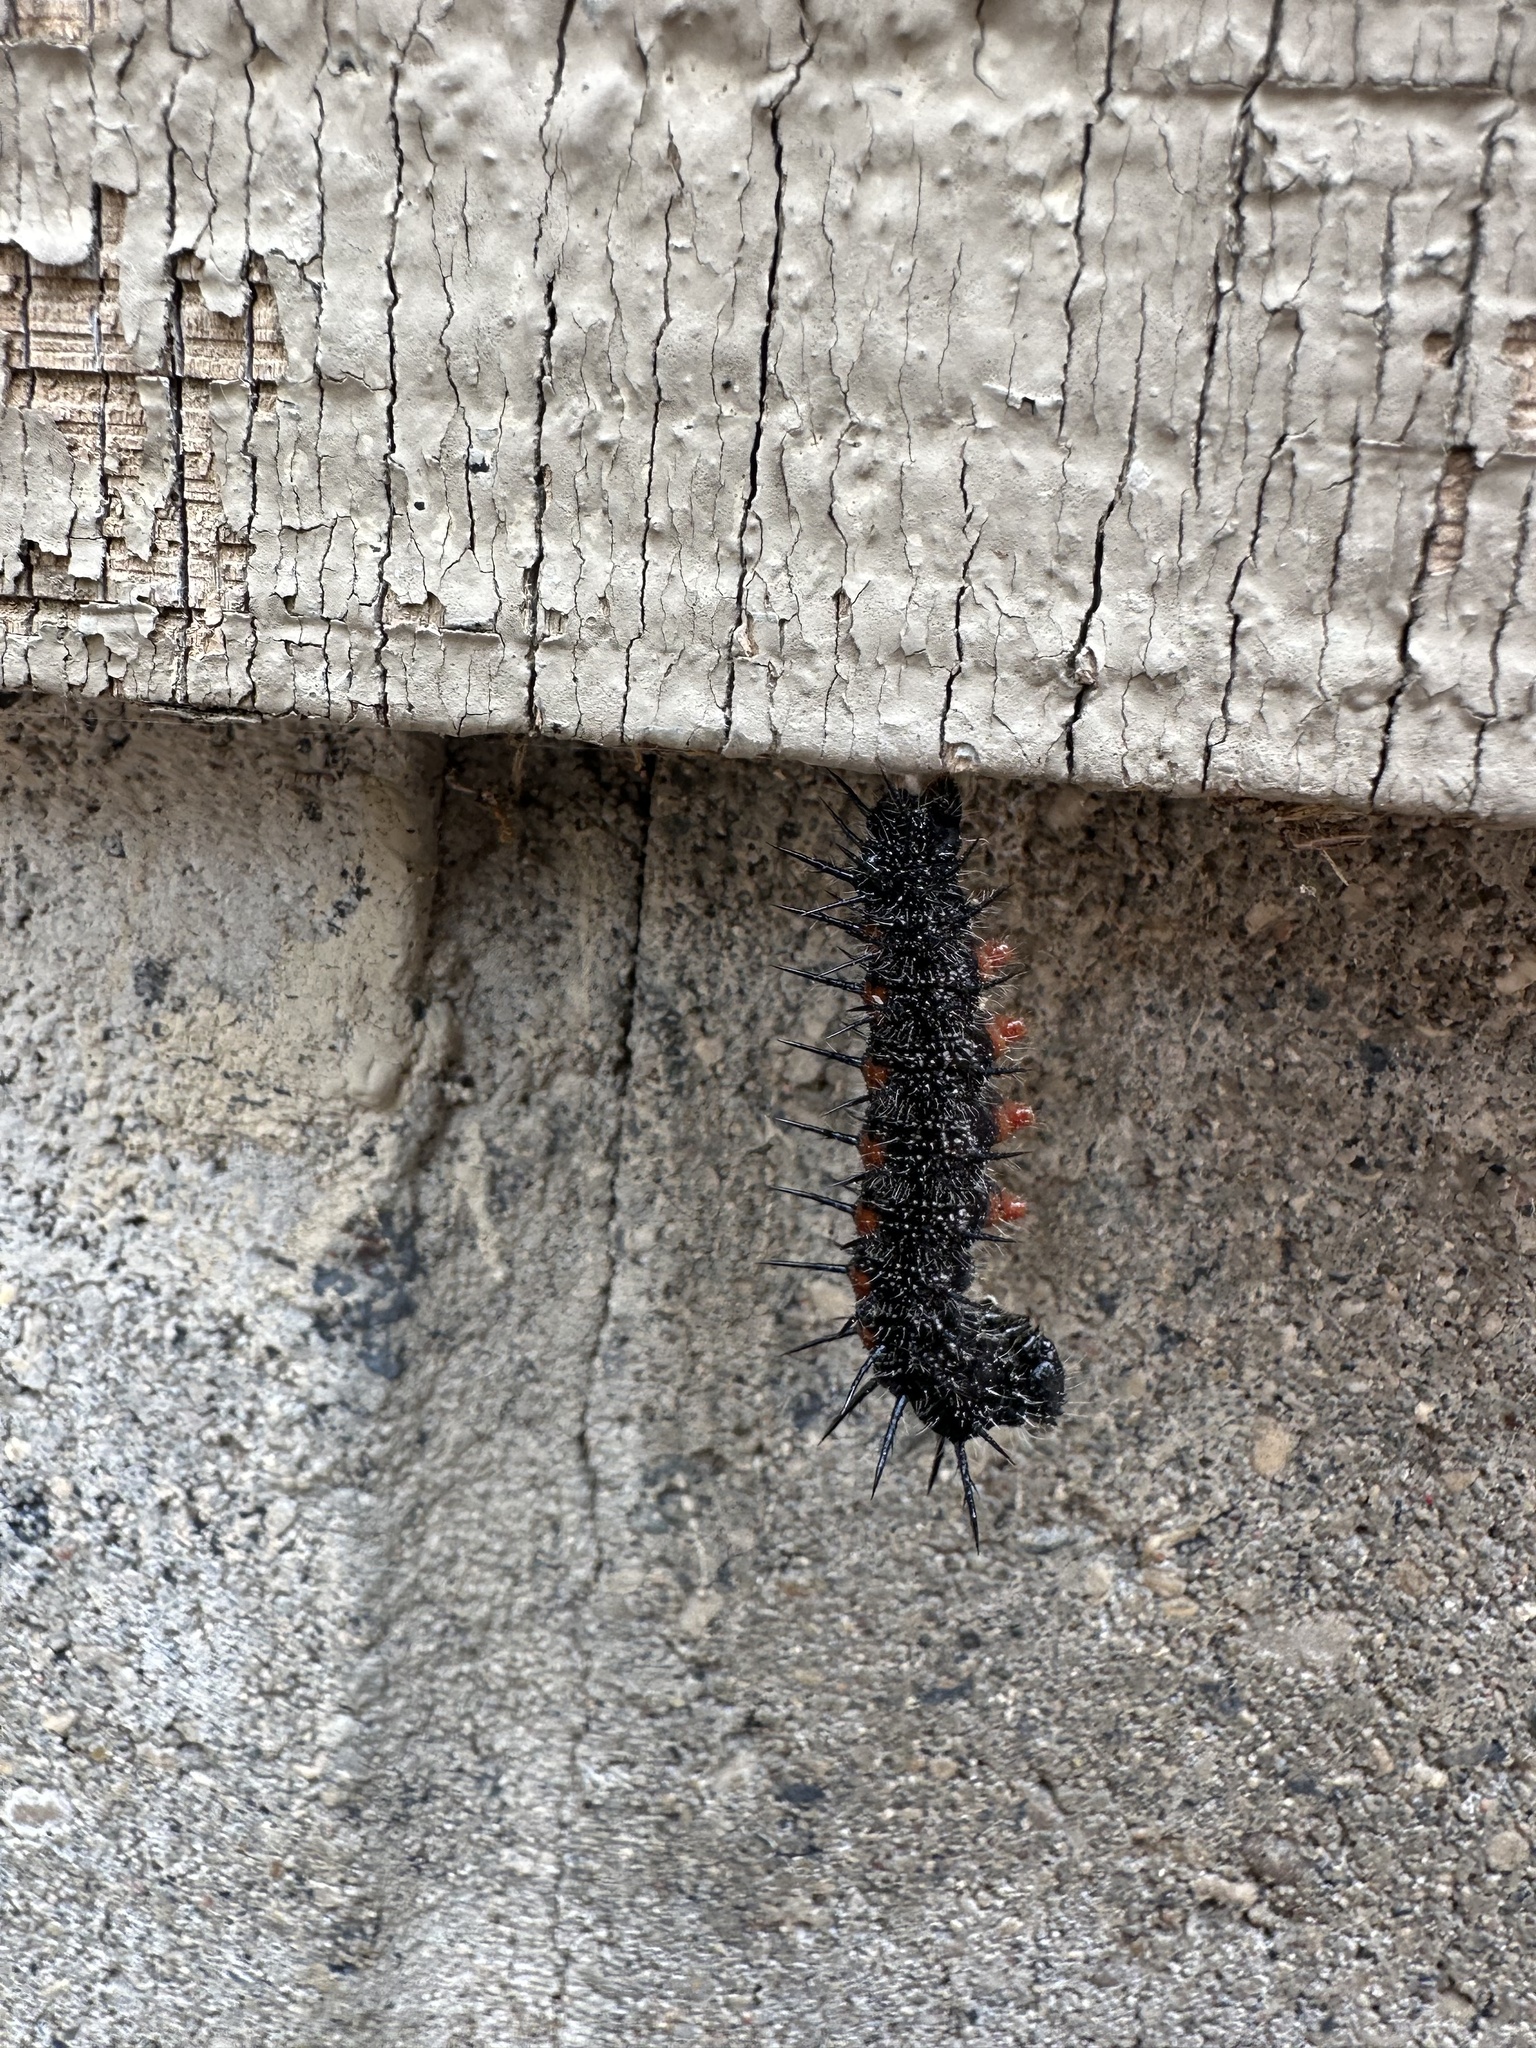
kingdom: Animalia
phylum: Arthropoda
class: Insecta
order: Lepidoptera
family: Nymphalidae
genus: Nymphalis
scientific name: Nymphalis antiopa
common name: Camberwell beauty
